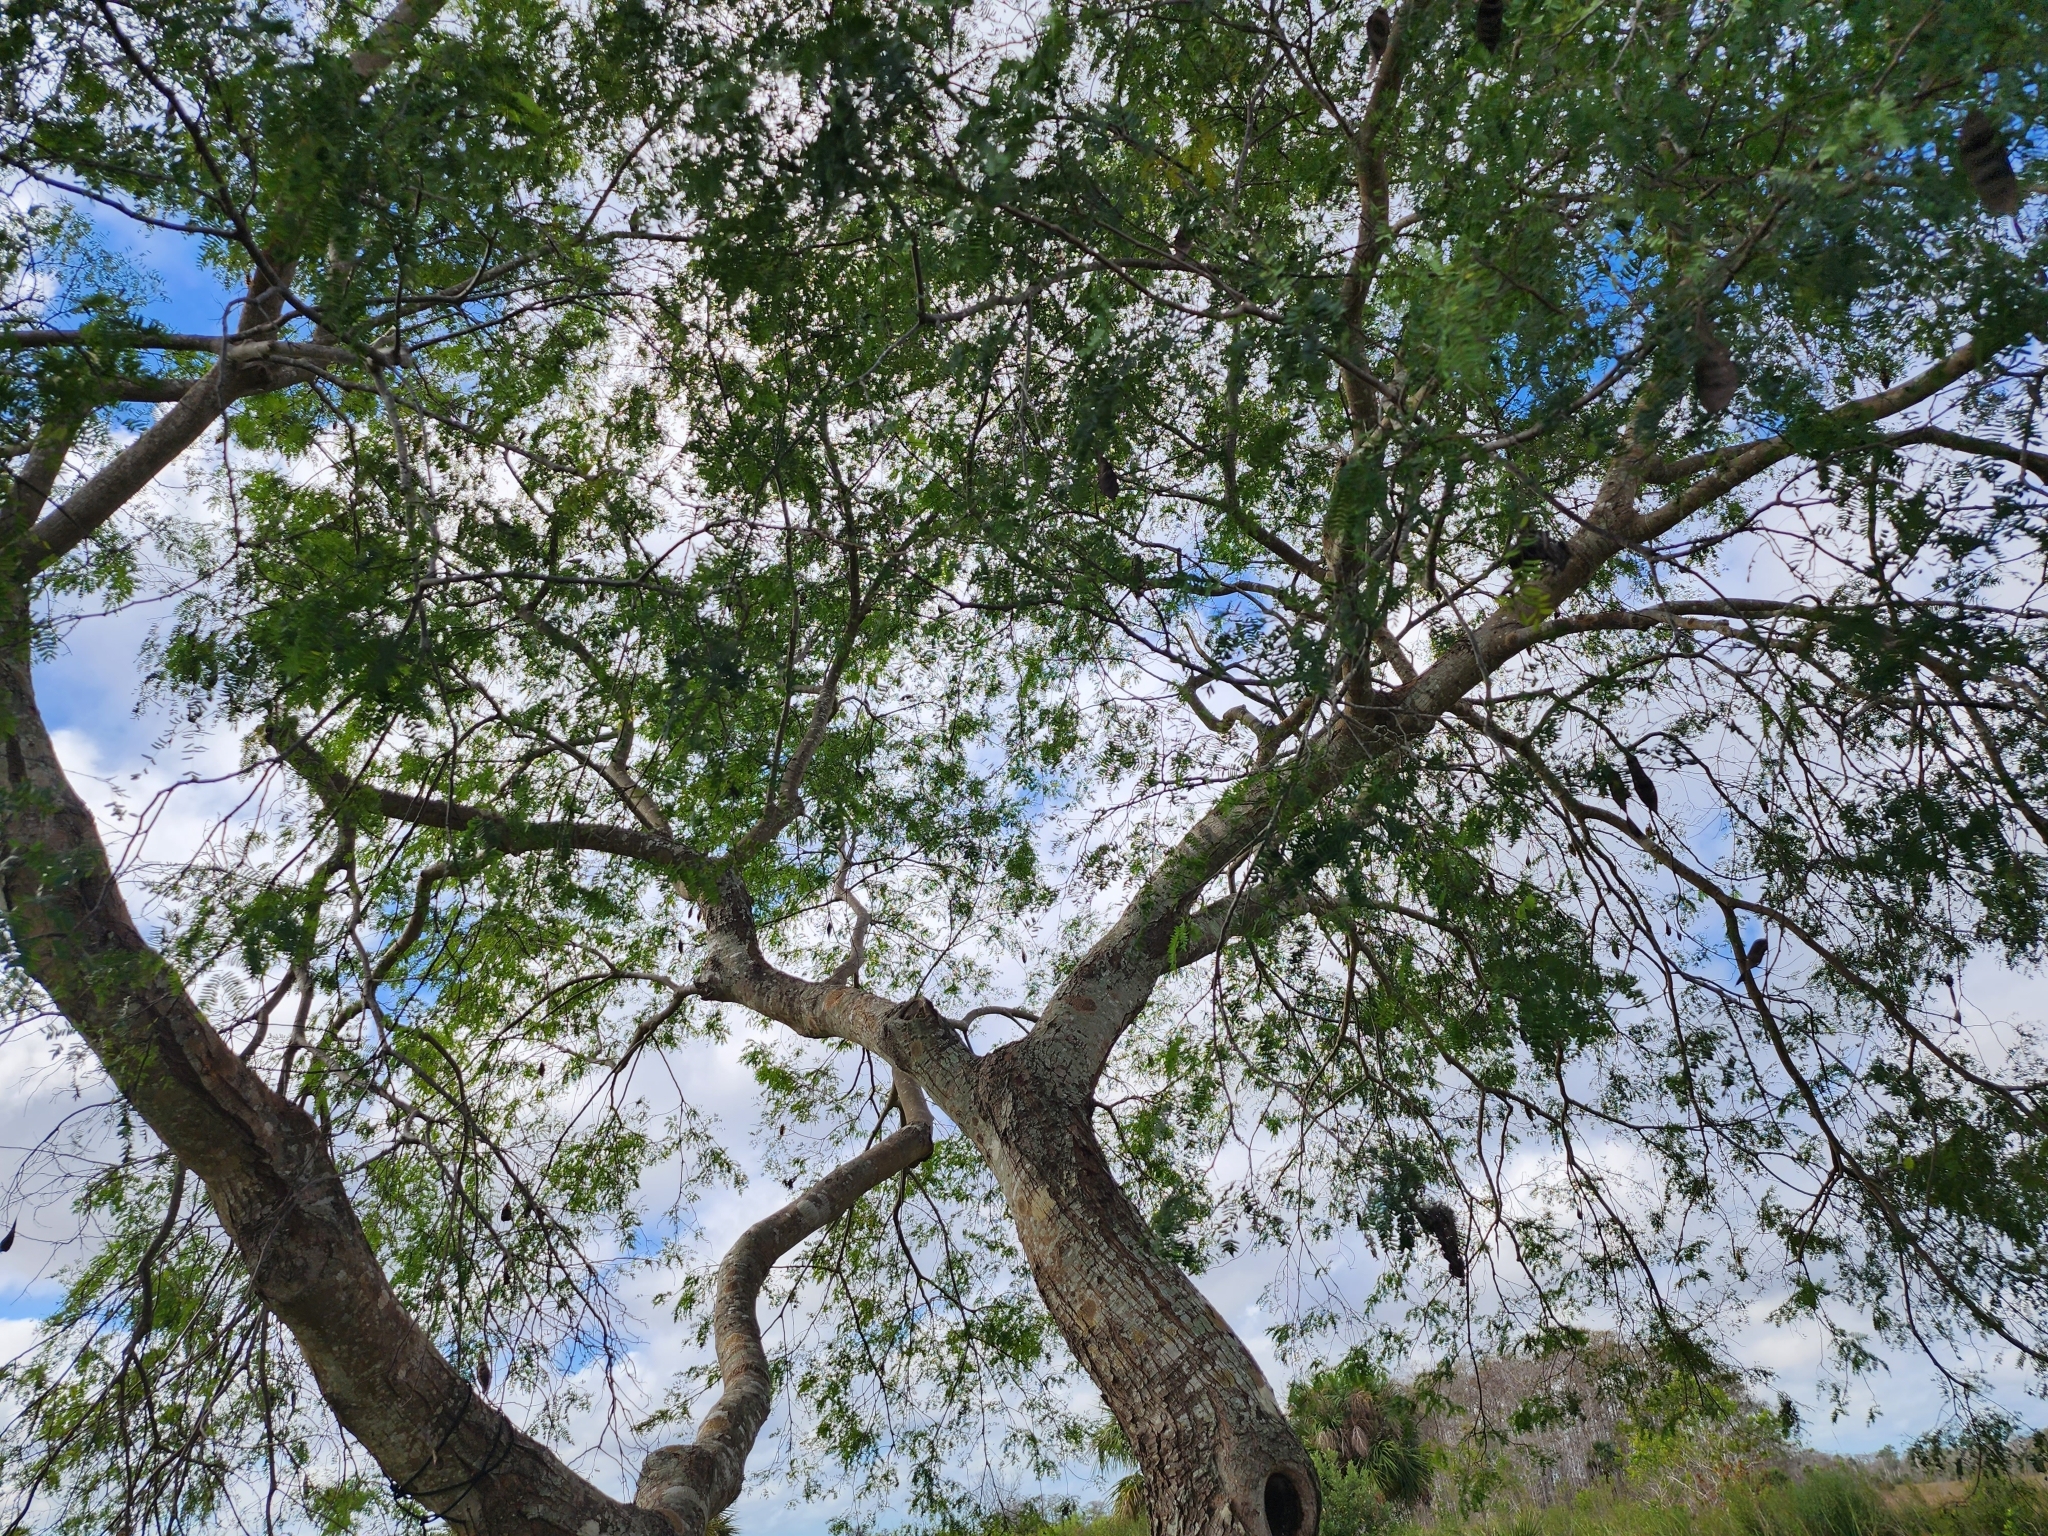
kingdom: Plantae
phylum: Tracheophyta
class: Magnoliopsida
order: Fabales
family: Fabaceae
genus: Lysiloma
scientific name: Lysiloma latisiliquum
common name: Wild tamarind
